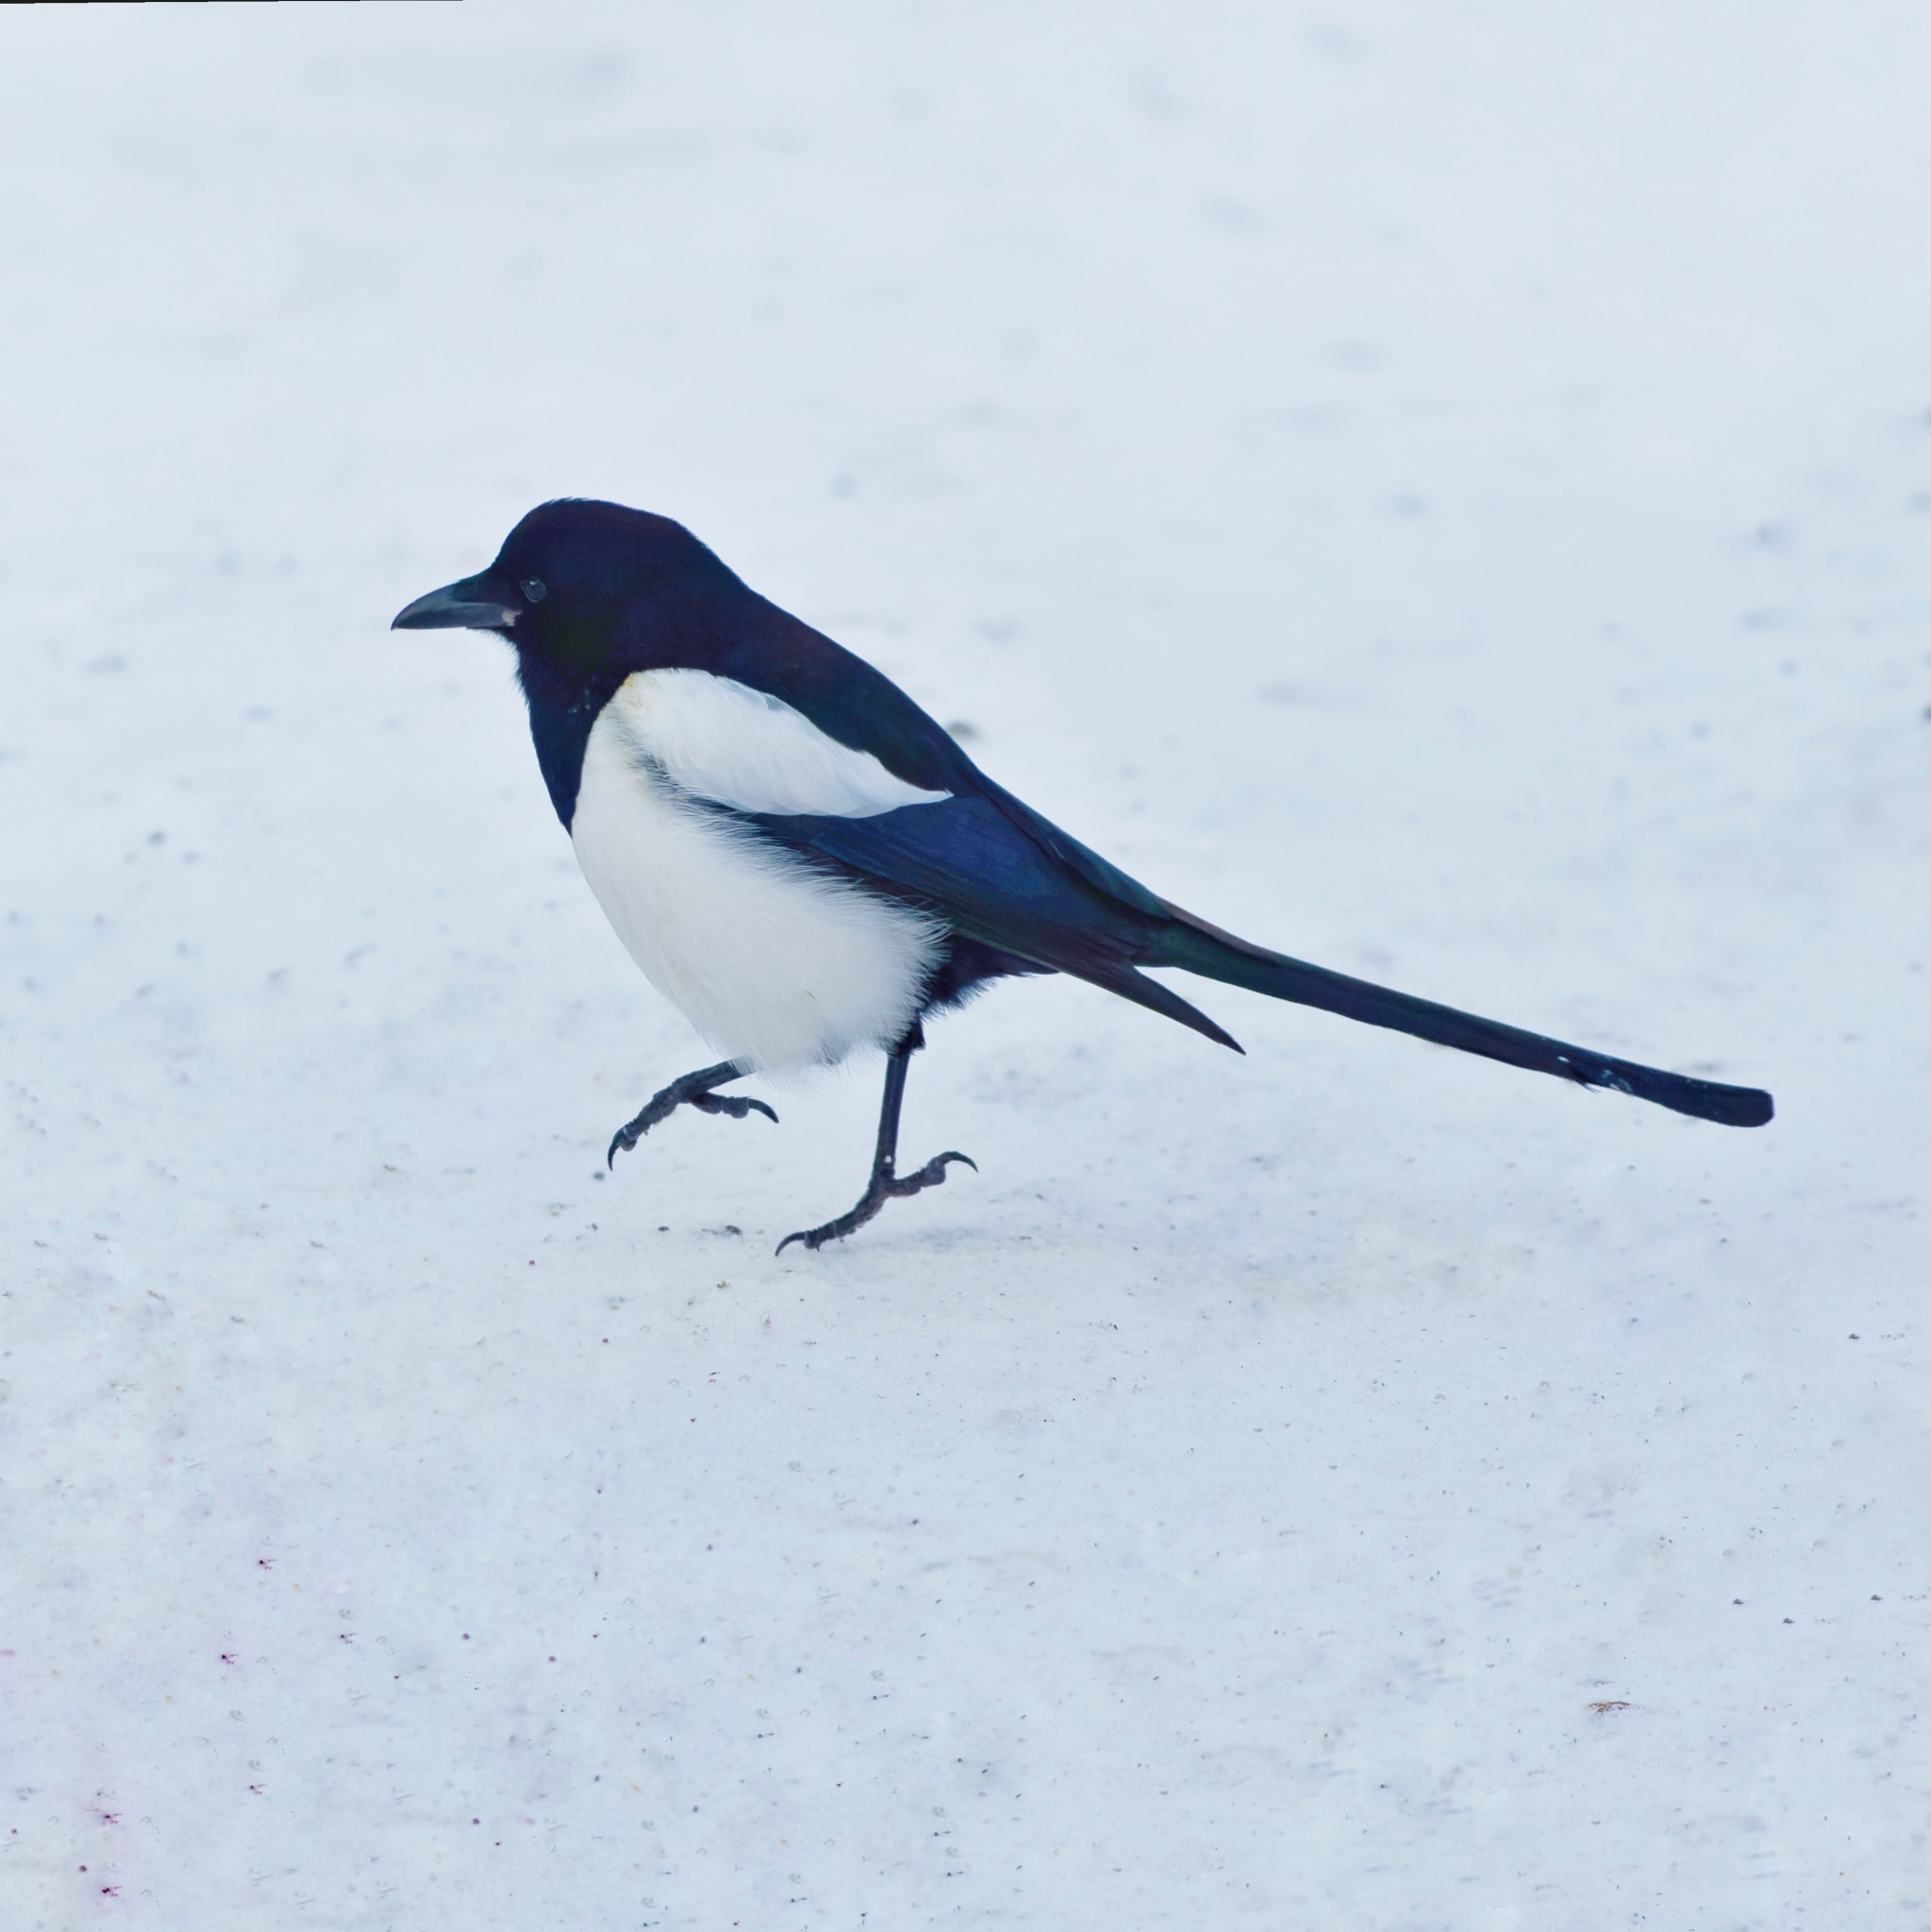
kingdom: Animalia
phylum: Chordata
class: Aves
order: Passeriformes
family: Corvidae
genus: Pica
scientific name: Pica pica
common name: Eurasian magpie
